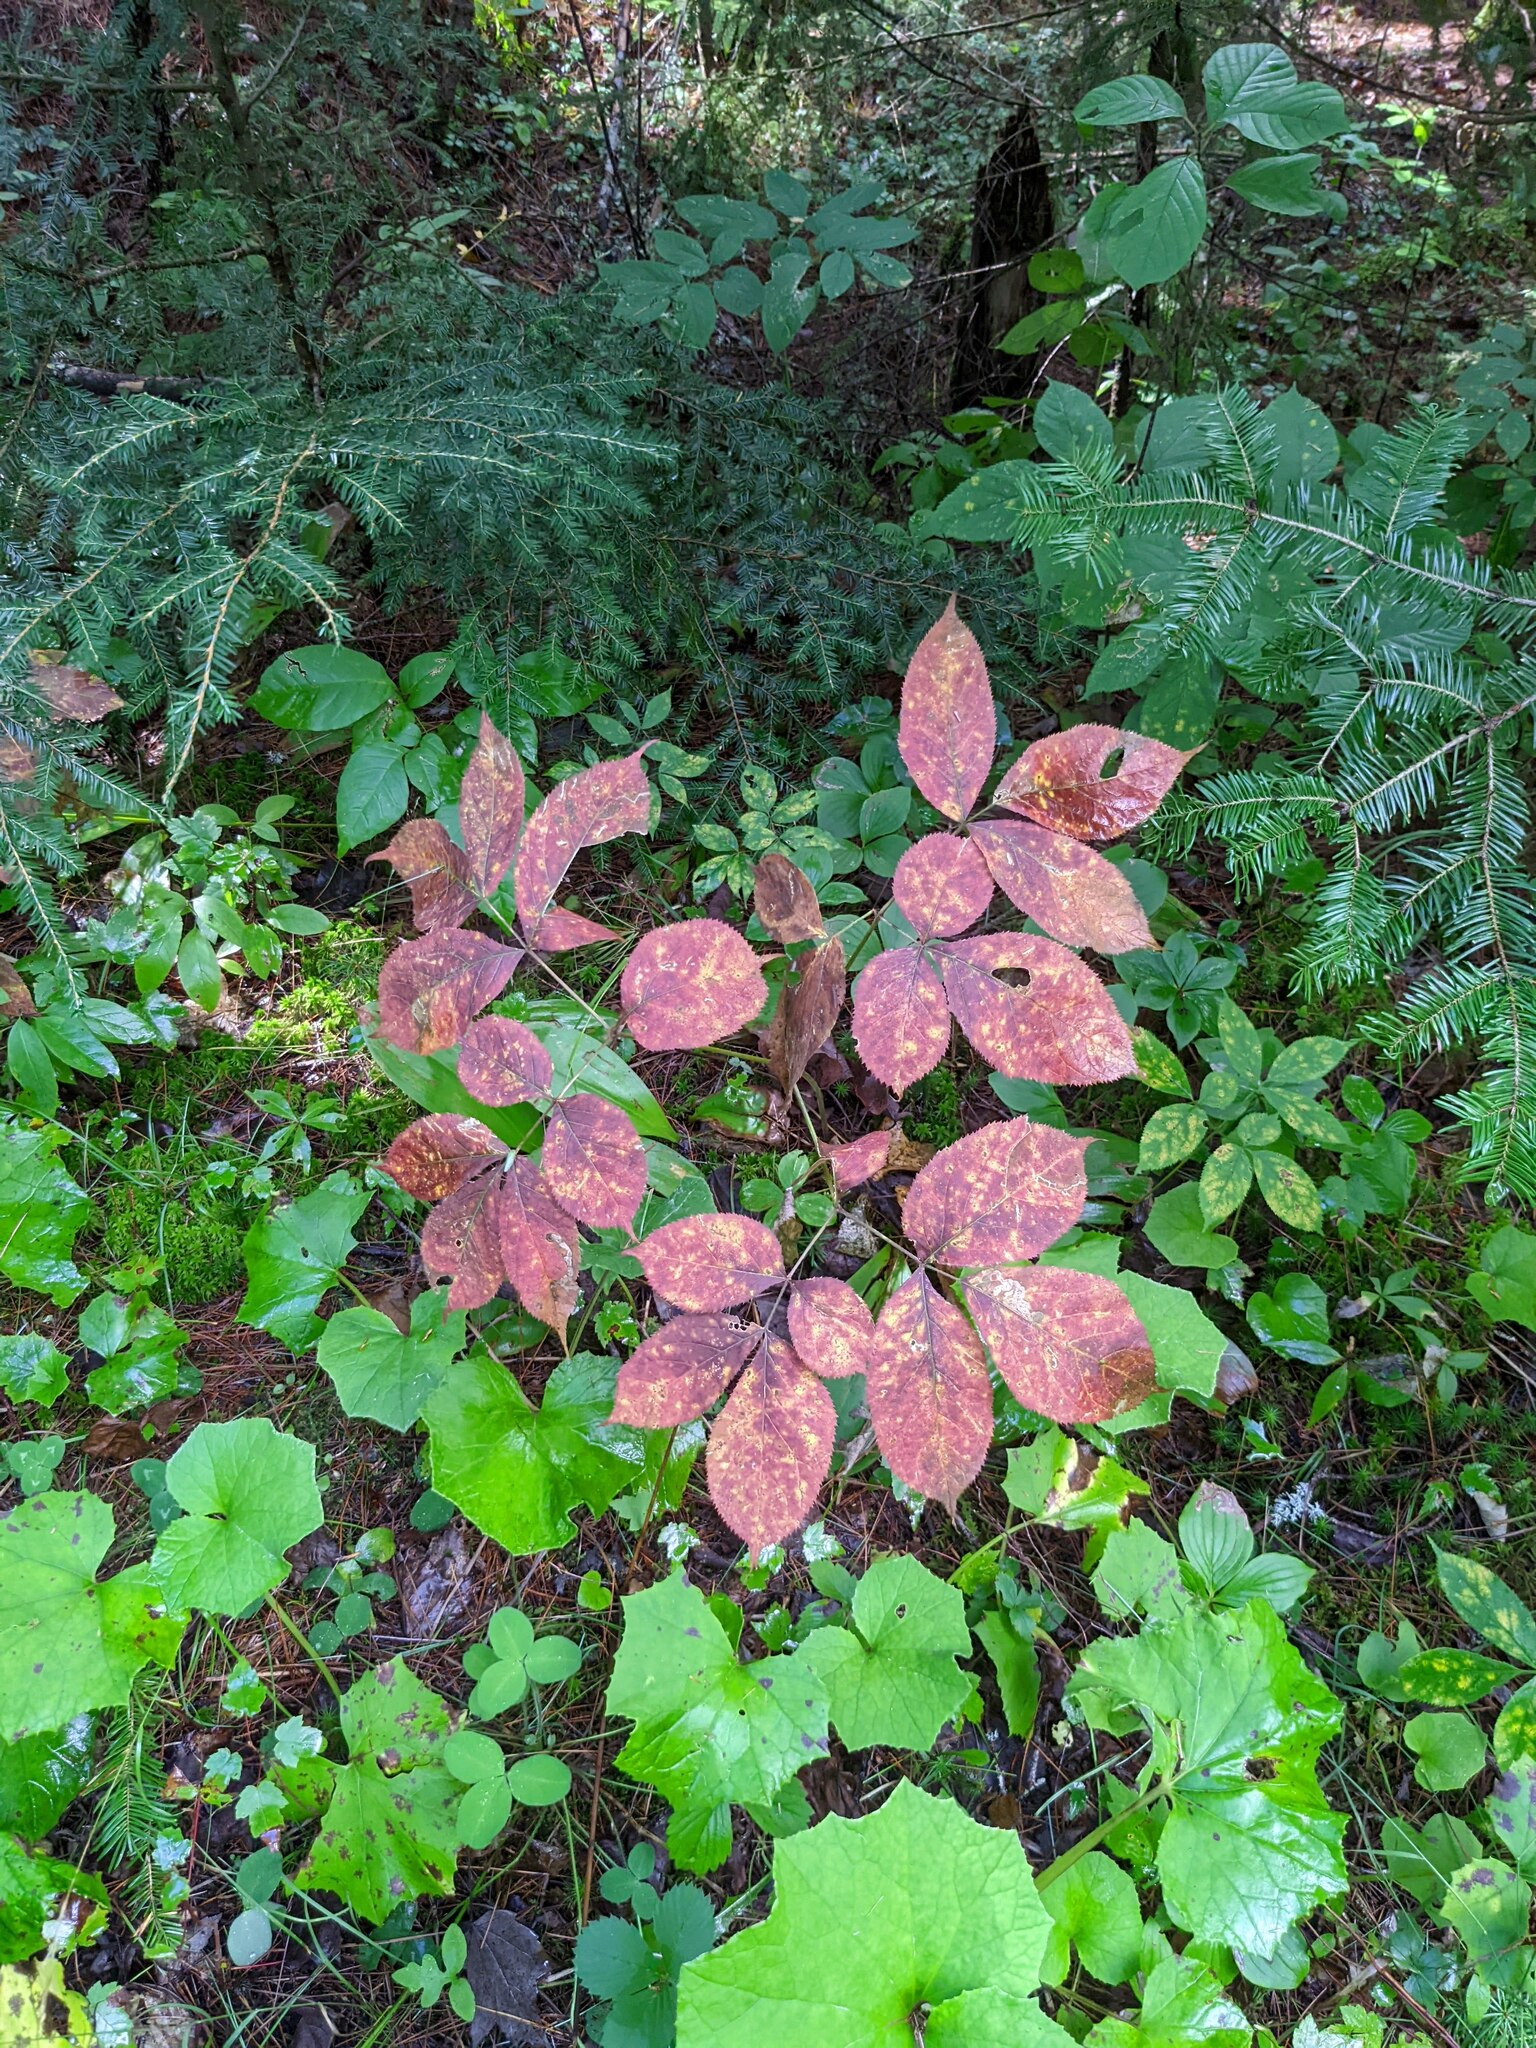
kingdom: Plantae
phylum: Tracheophyta
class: Magnoliopsida
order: Apiales
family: Araliaceae
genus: Aralia
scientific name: Aralia nudicaulis
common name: Wild sarsaparilla
